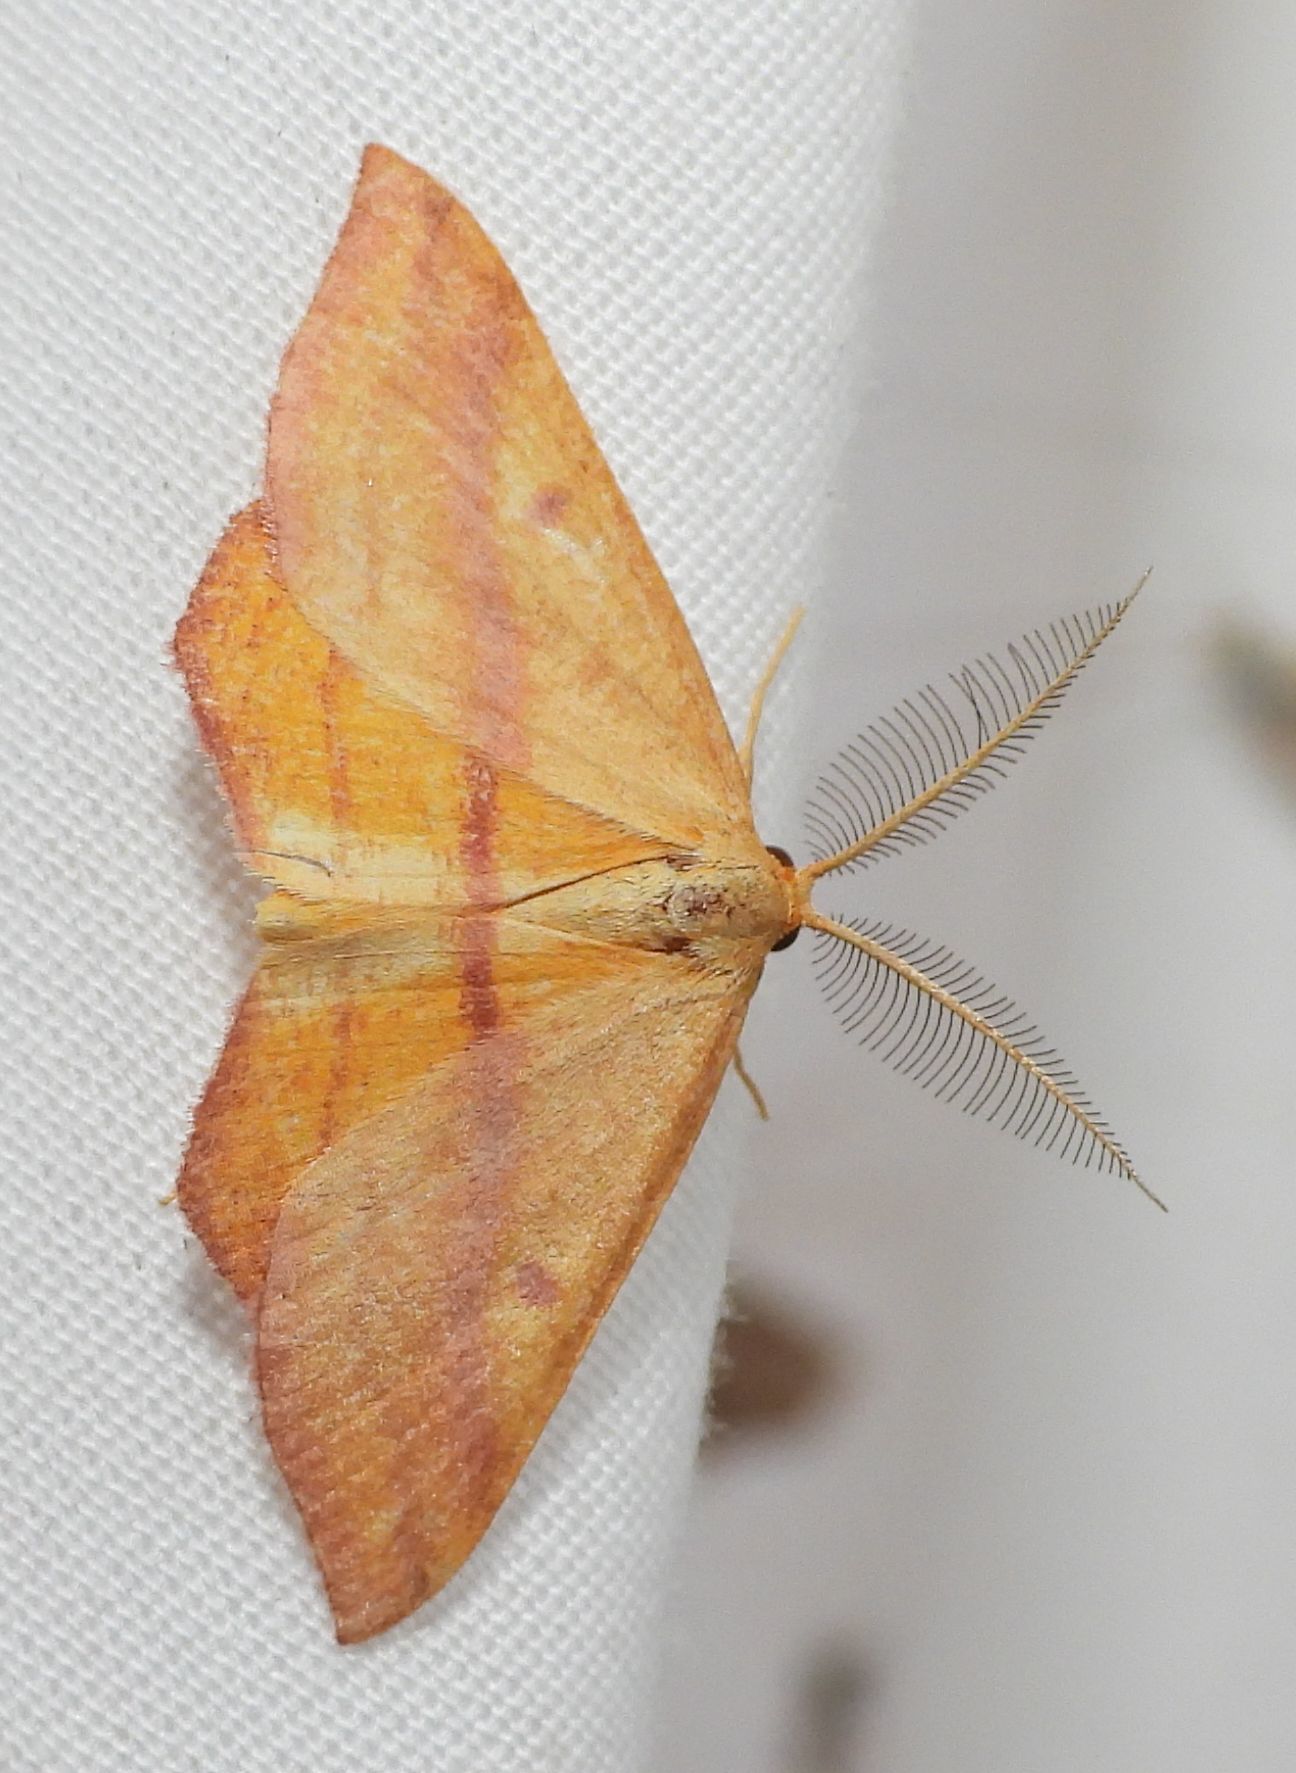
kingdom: Animalia
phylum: Arthropoda
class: Insecta
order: Lepidoptera
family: Geometridae
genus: Haematopis
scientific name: Haematopis grataria
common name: Chickweed geometer
